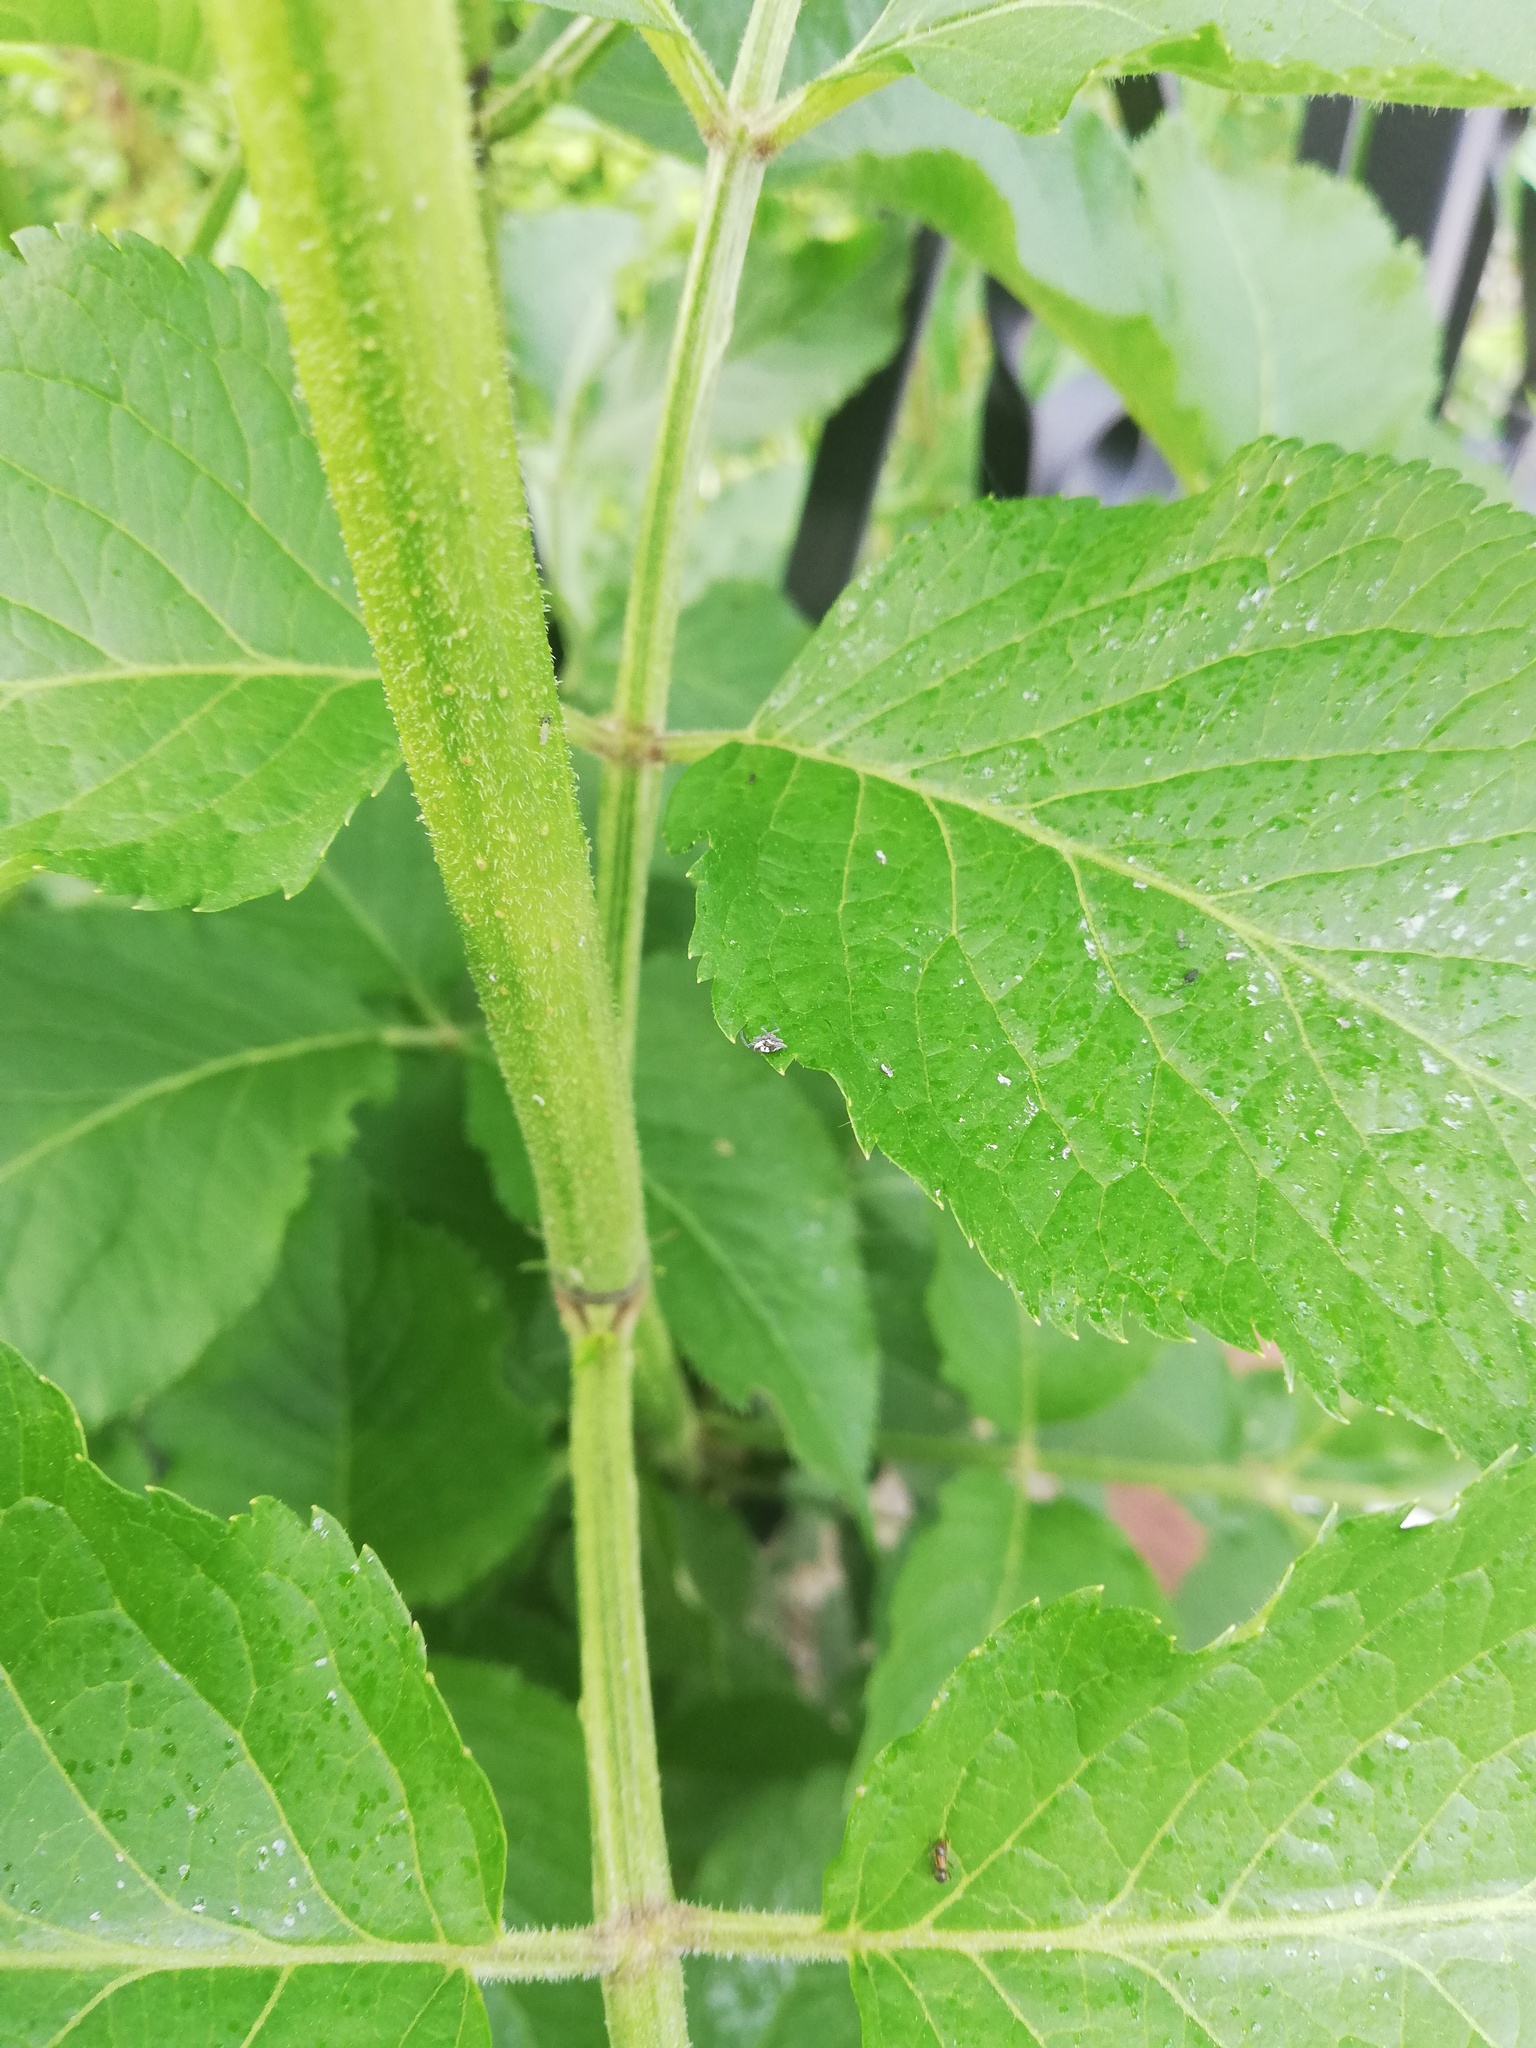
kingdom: Plantae
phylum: Tracheophyta
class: Magnoliopsida
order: Dipsacales
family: Viburnaceae
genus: Sambucus
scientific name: Sambucus nigra
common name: Elder
